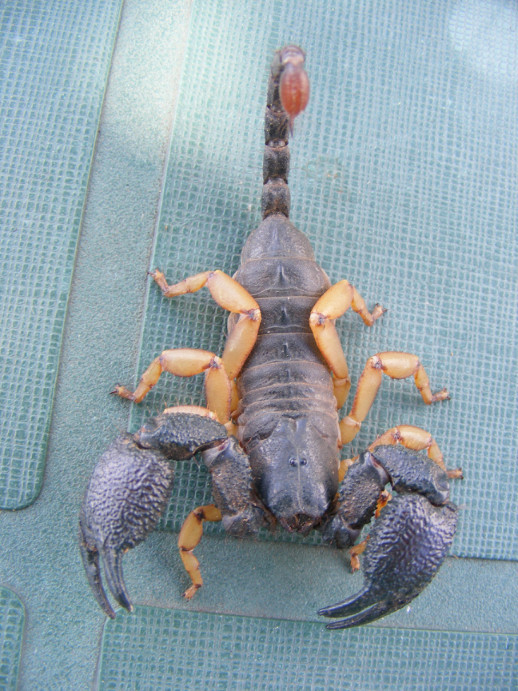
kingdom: Animalia
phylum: Arthropoda
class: Arachnida
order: Scorpiones
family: Hormuridae
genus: Opisthacanthus
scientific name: Opisthacanthus asper
